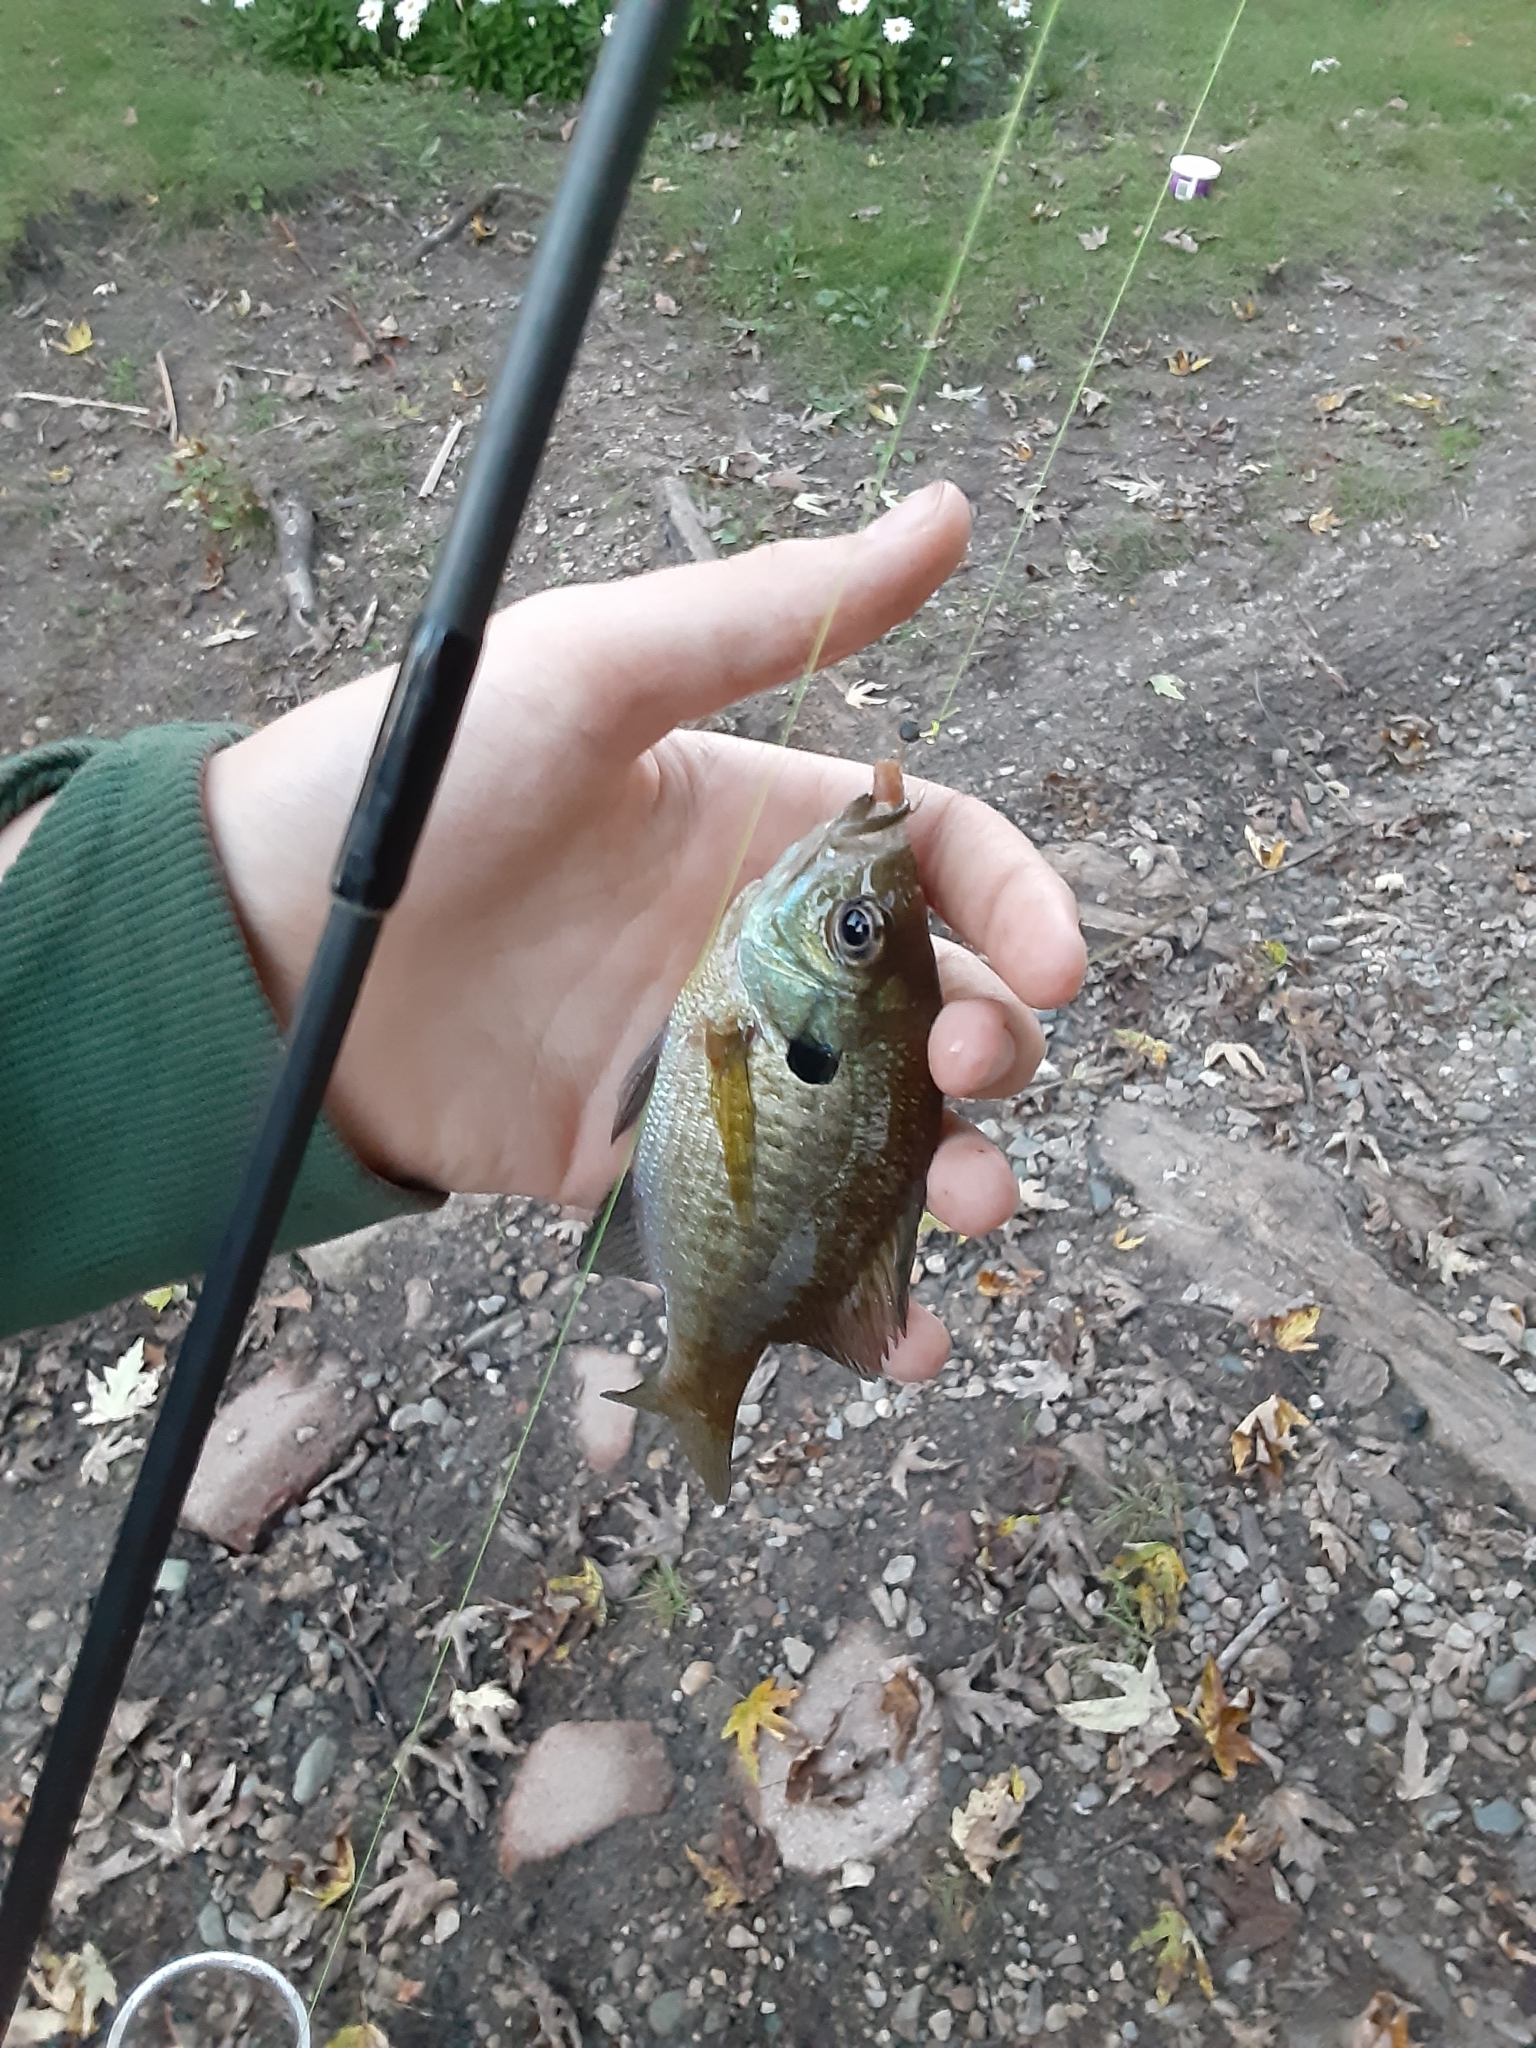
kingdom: Animalia
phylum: Chordata
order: Perciformes
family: Centrarchidae
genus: Lepomis
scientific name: Lepomis macrochirus
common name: Bluegill
